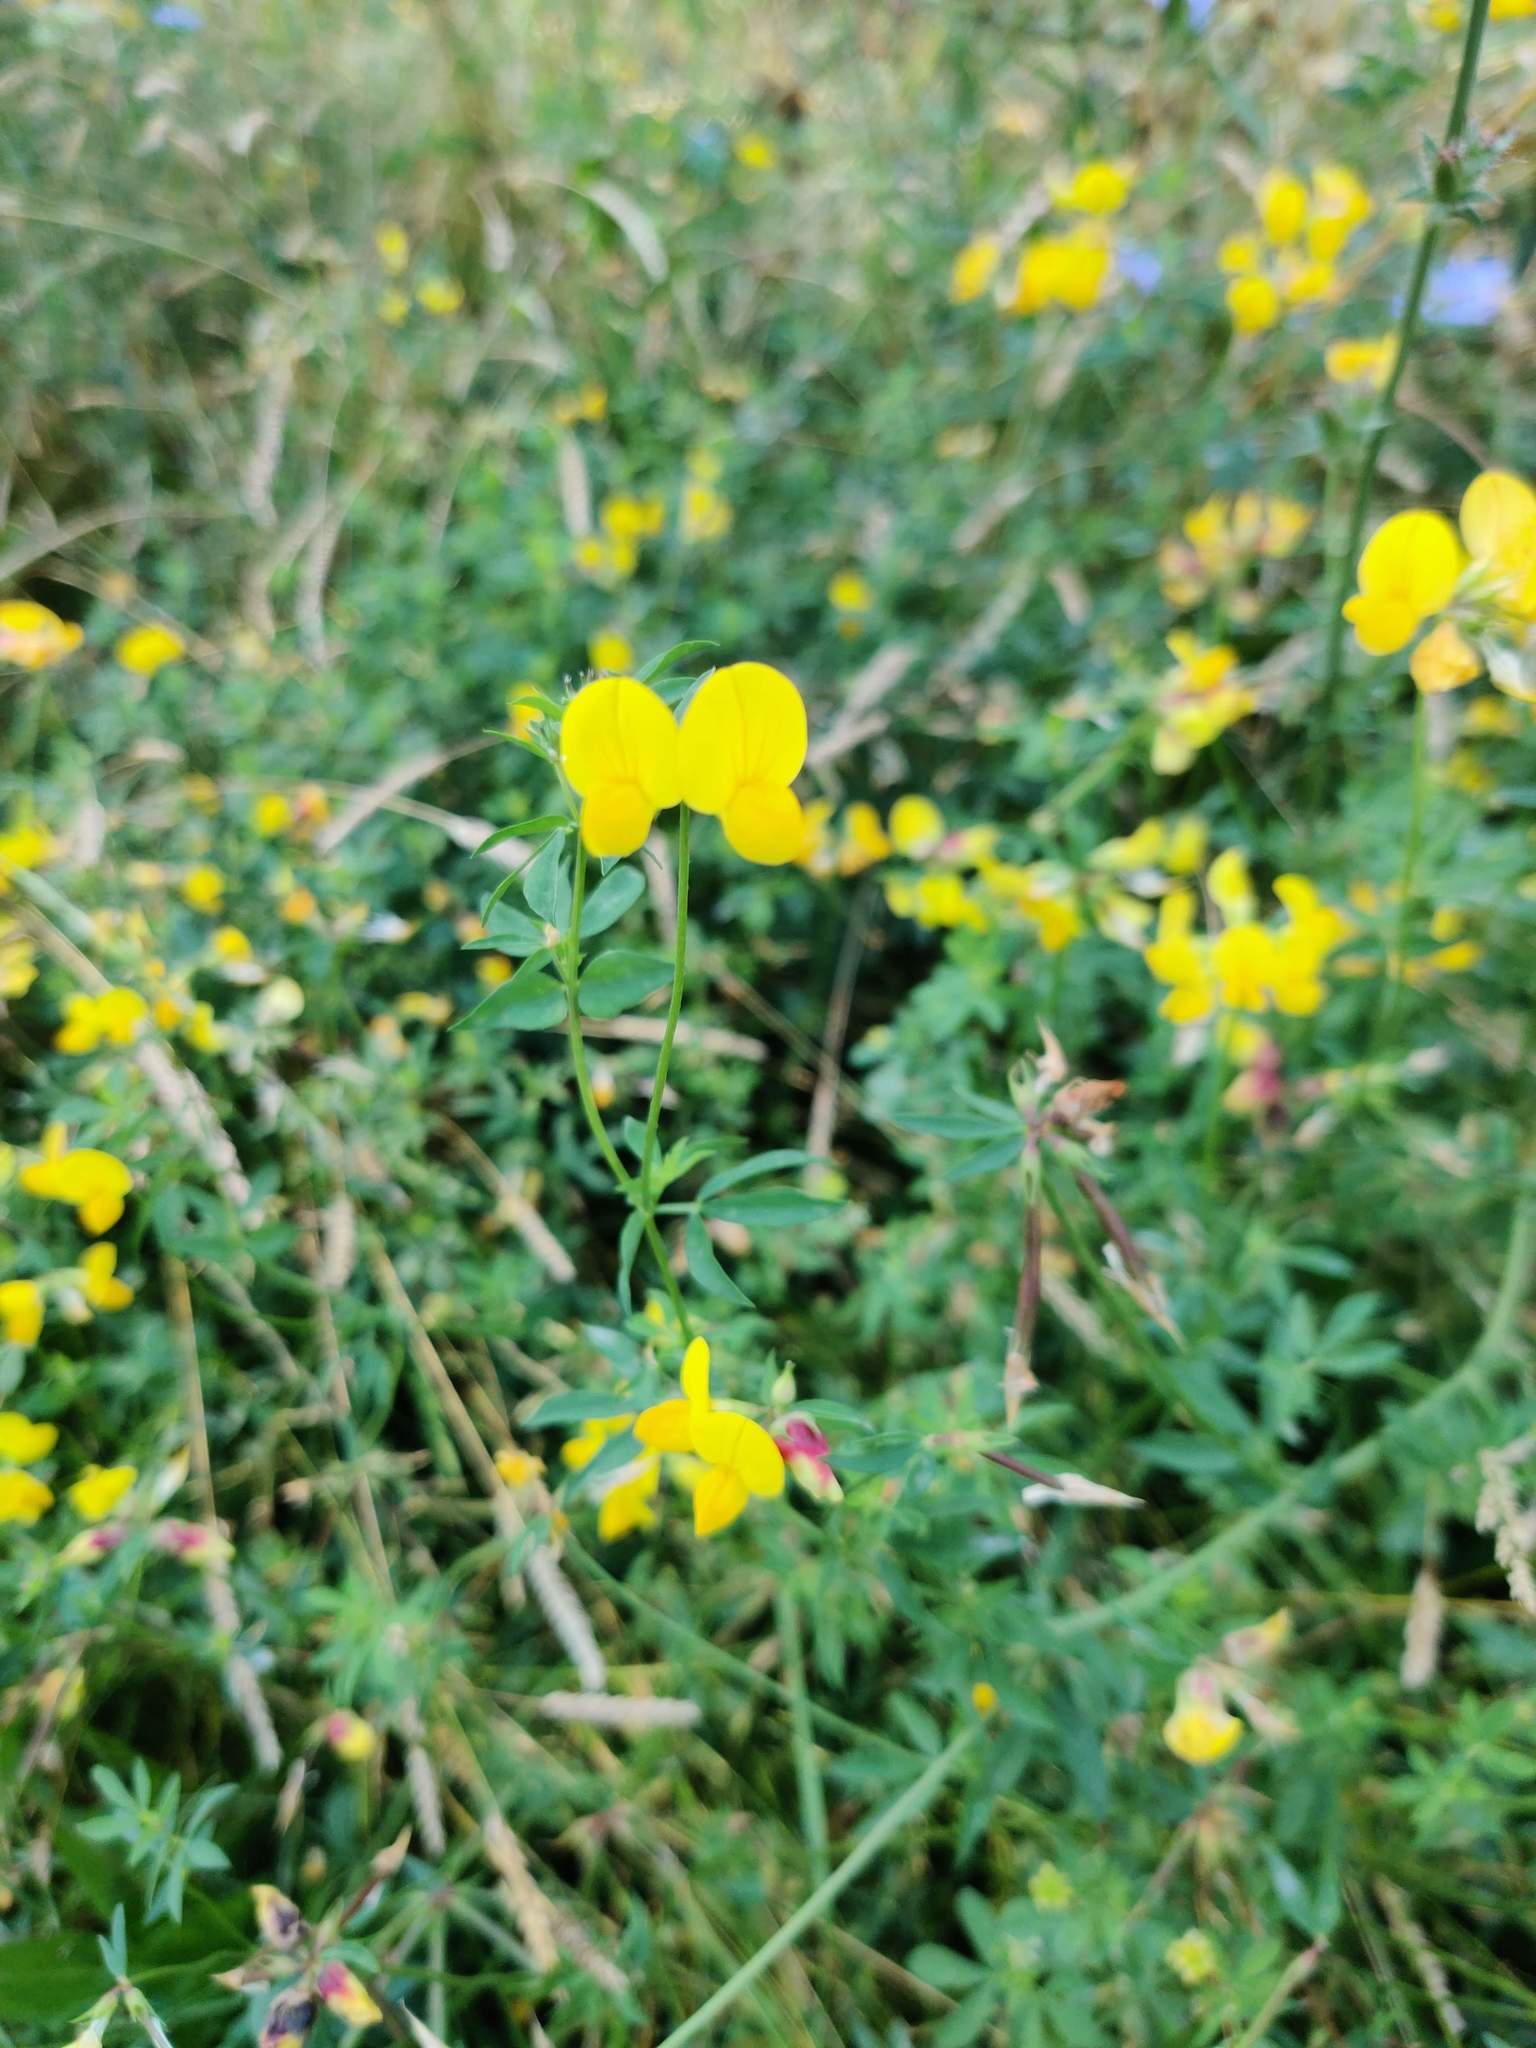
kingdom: Plantae
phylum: Tracheophyta
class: Magnoliopsida
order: Fabales
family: Fabaceae
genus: Lotus
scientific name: Lotus corniculatus
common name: Common bird's-foot-trefoil
